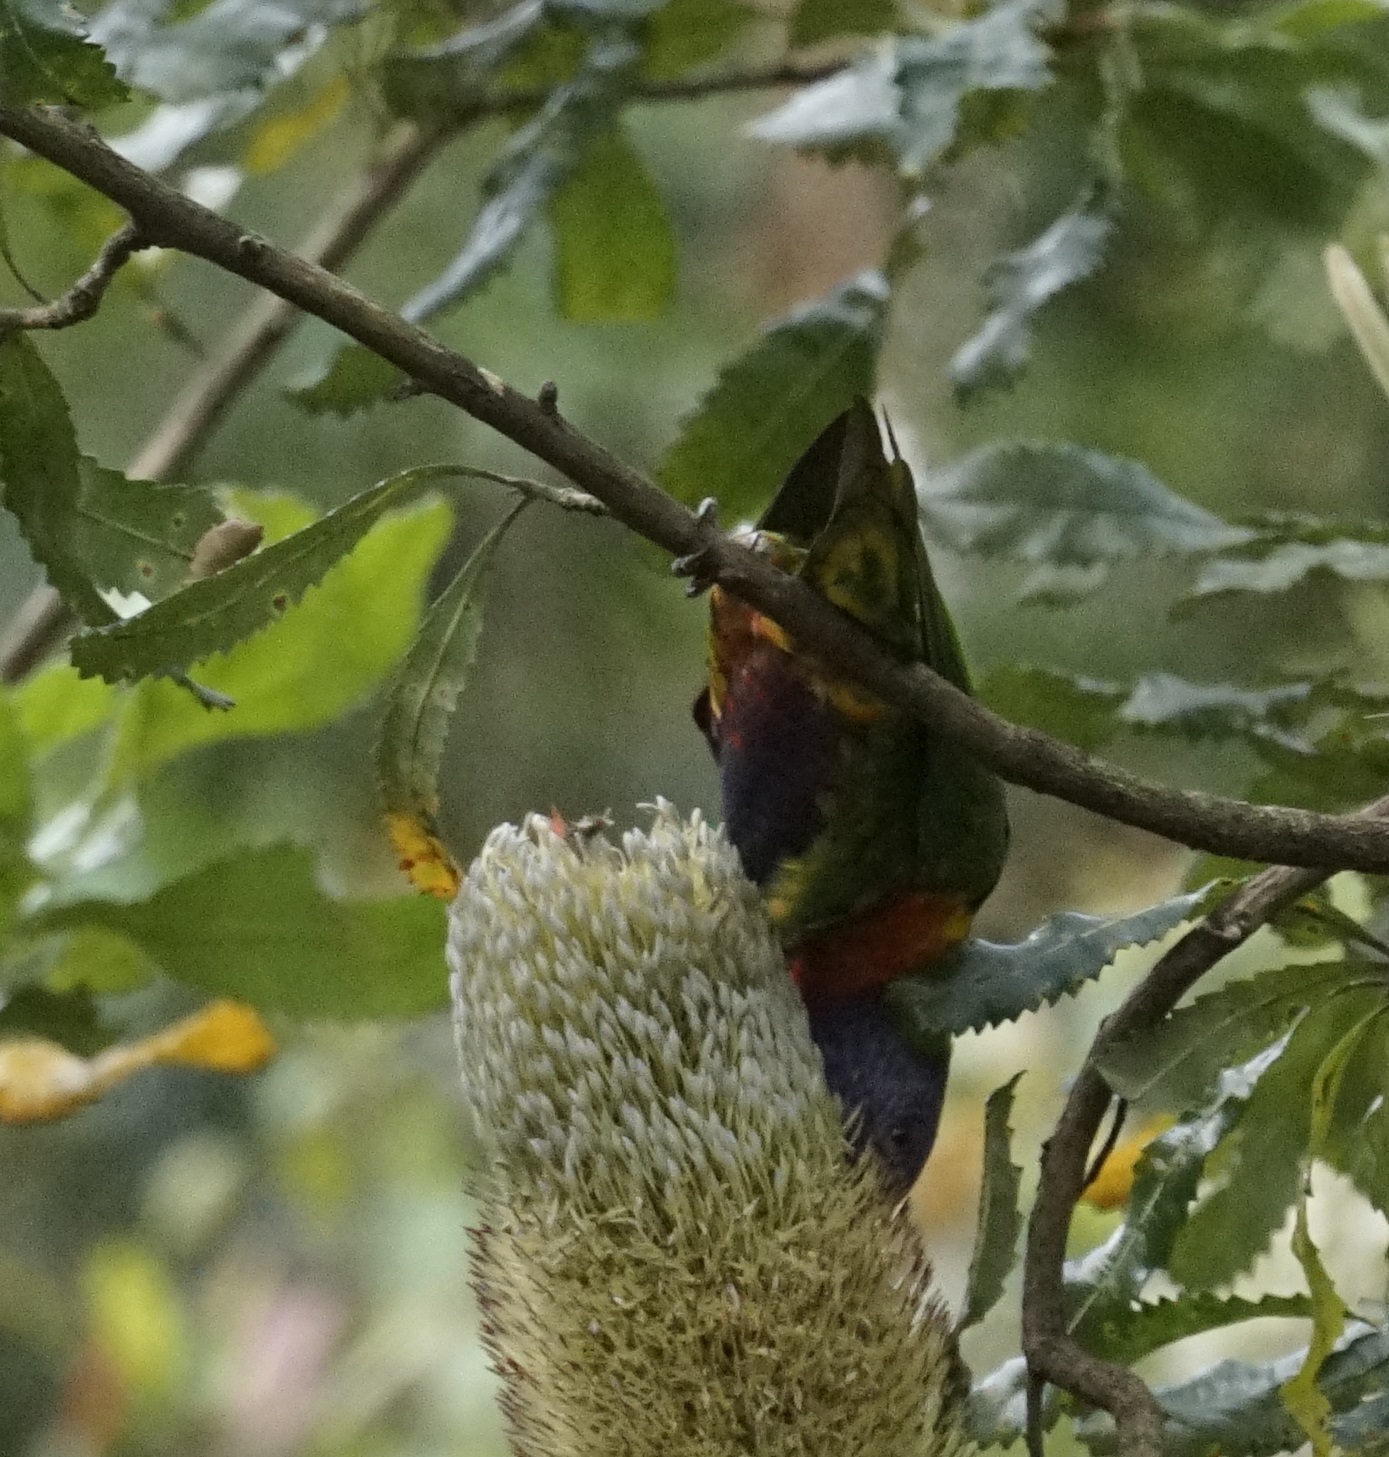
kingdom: Animalia
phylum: Chordata
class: Aves
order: Psittaciformes
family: Psittacidae
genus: Trichoglossus
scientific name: Trichoglossus haematodus
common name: Coconut lorikeet
